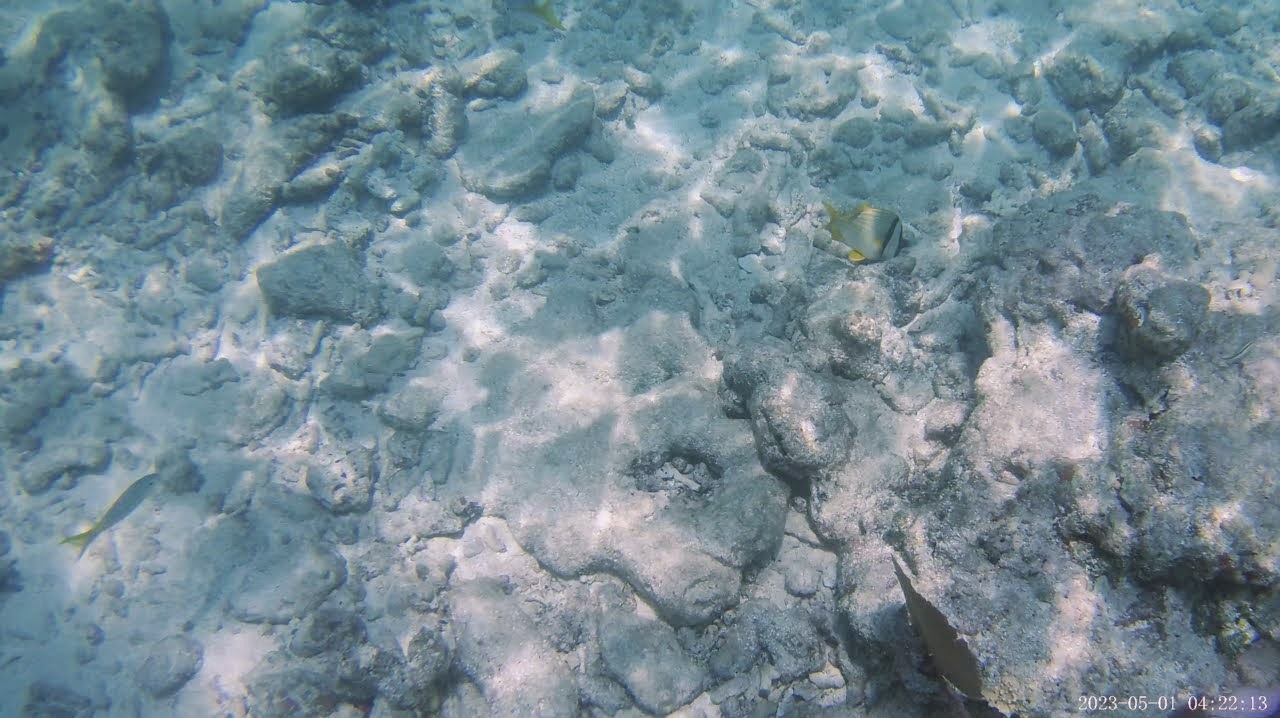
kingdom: Animalia
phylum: Chordata
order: Perciformes
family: Lutjanidae
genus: Ocyurus
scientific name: Ocyurus chrysurus
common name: Yellowtail snapper
